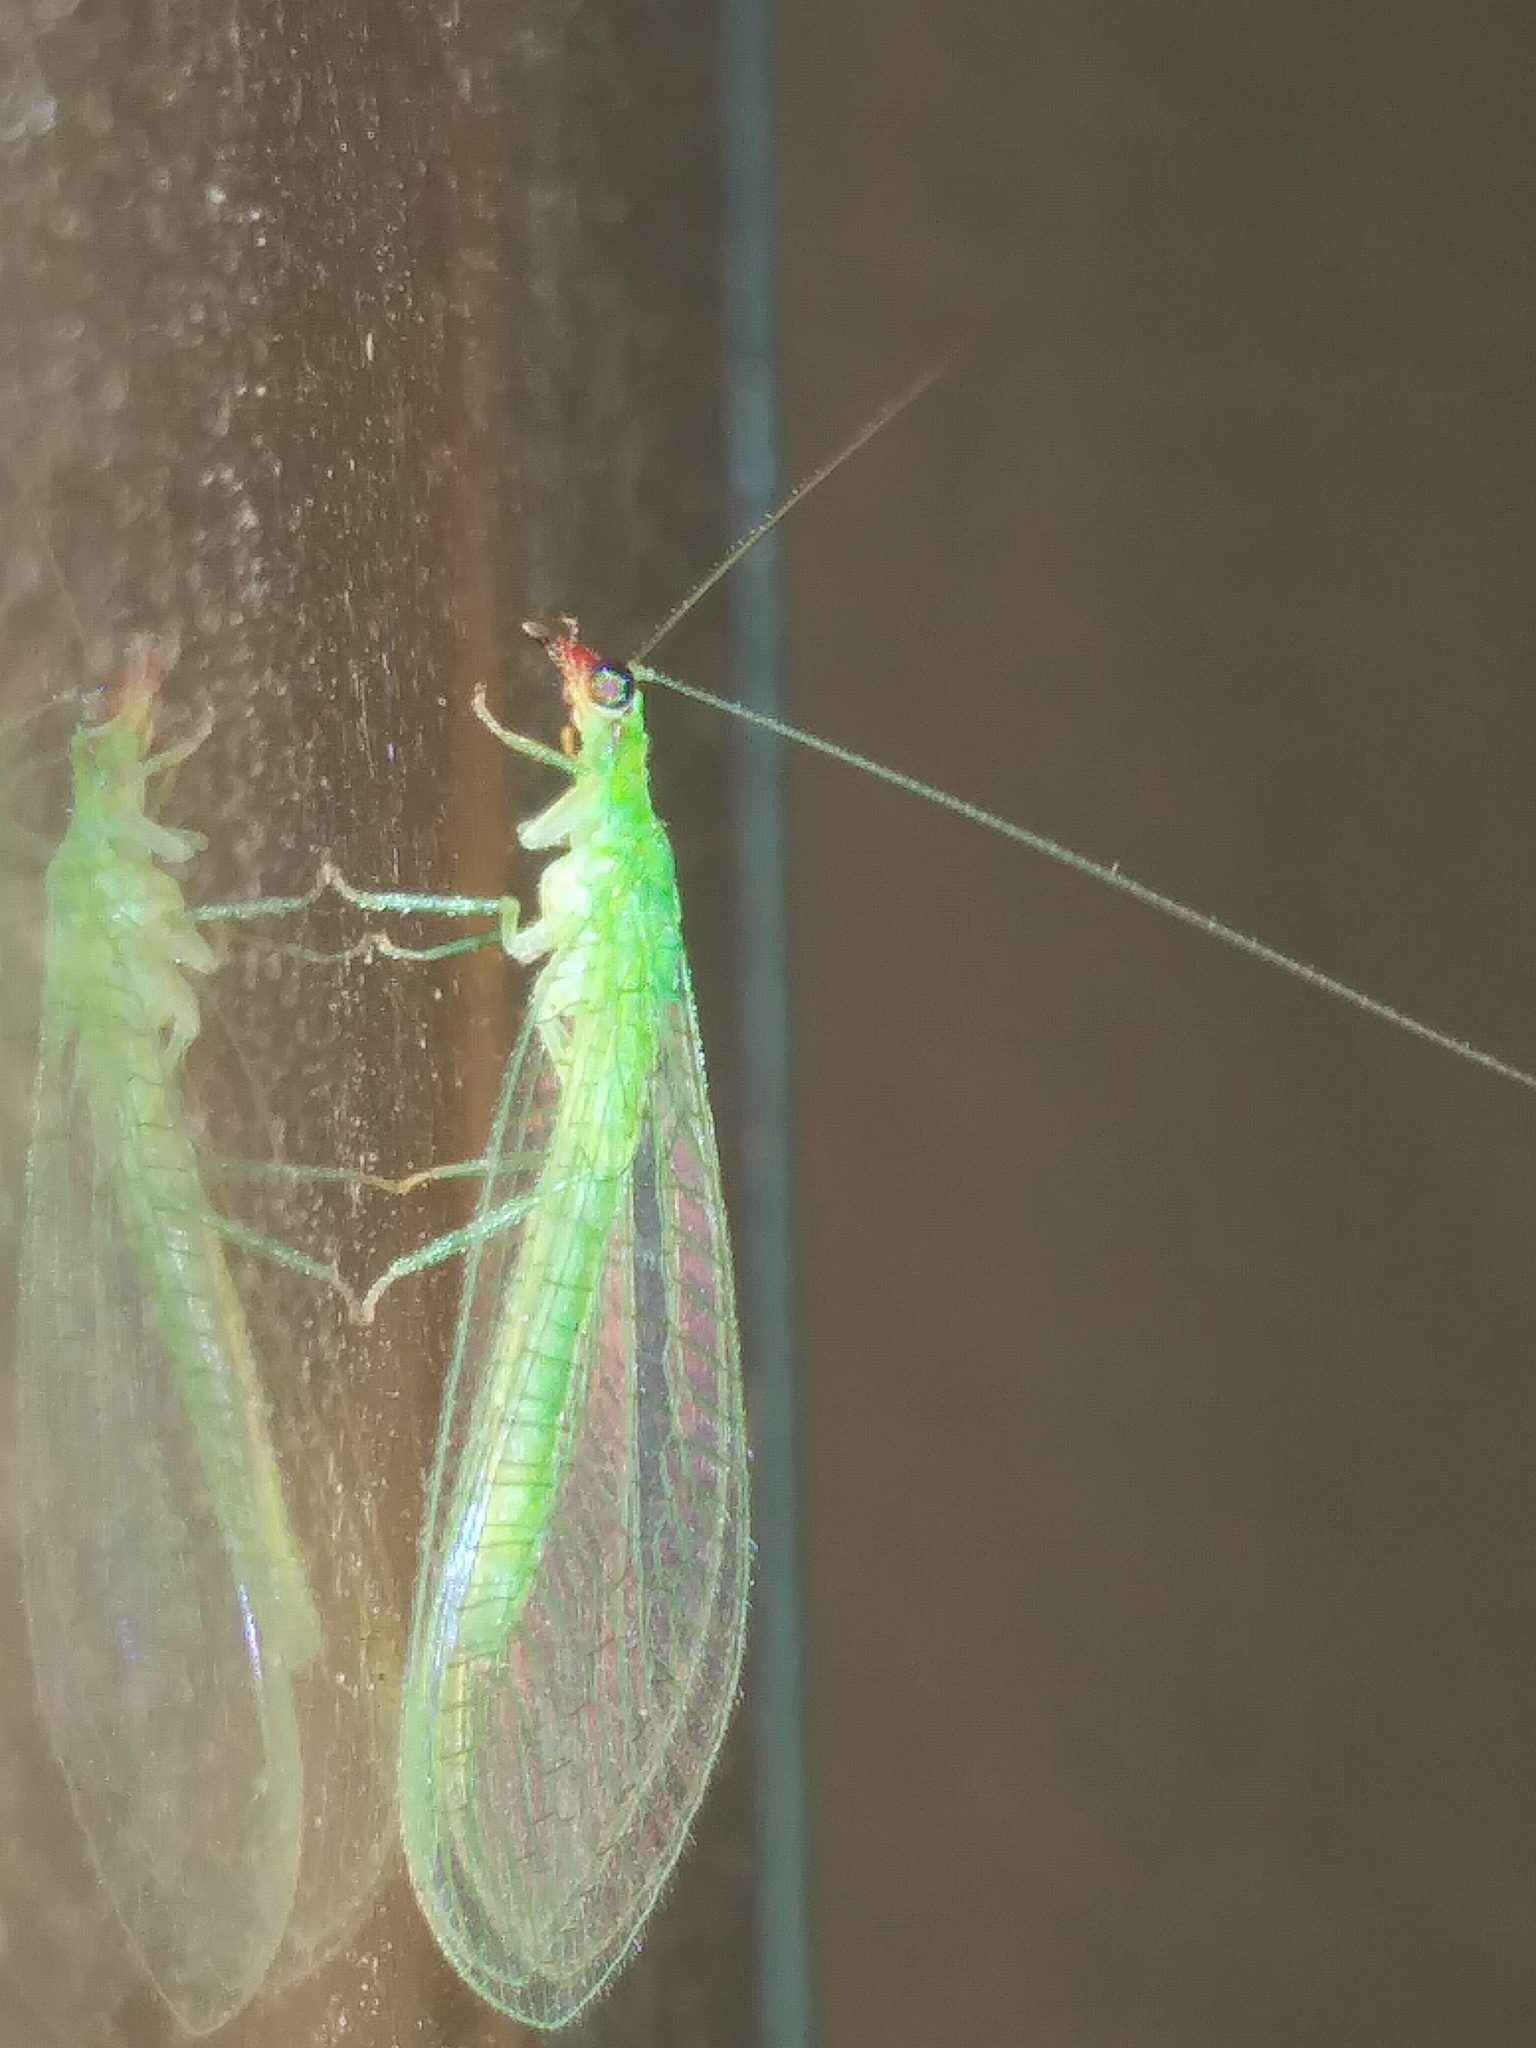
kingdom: Animalia
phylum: Arthropoda
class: Insecta
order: Neuroptera
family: Chrysopidae
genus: Chrysoperla
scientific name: Chrysoperla rufilabris
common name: Red-lipped green lacewing
